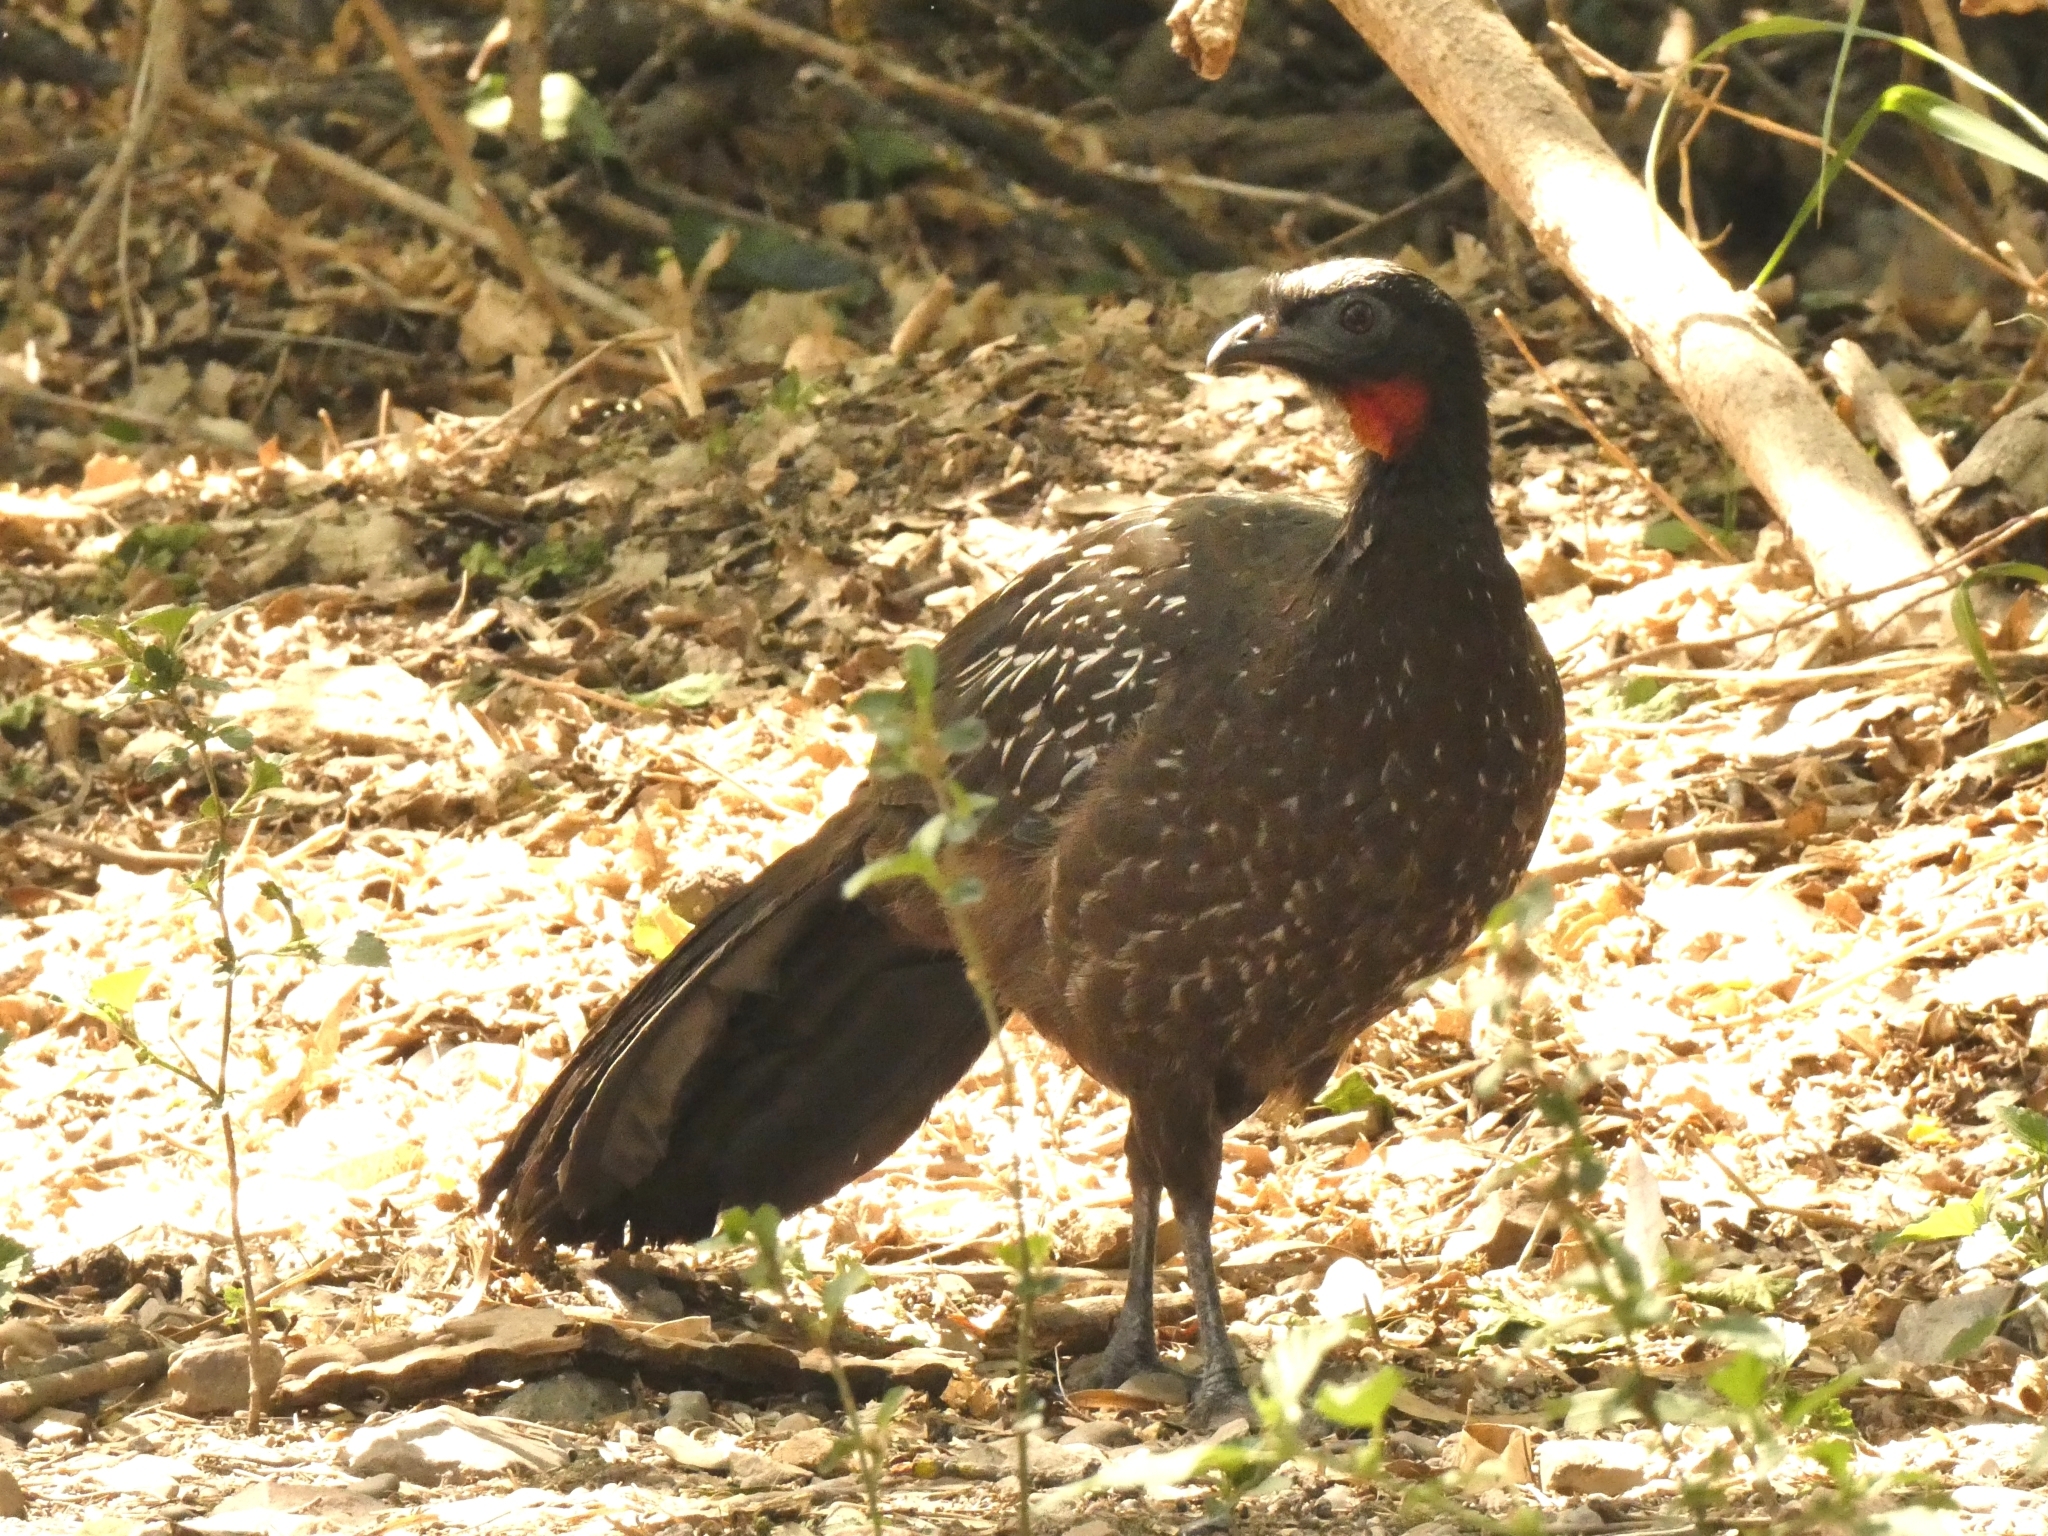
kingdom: Animalia
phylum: Chordata
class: Aves
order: Galliformes
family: Cracidae
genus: Penelope
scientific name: Penelope bridgesi
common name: Yungas guan
